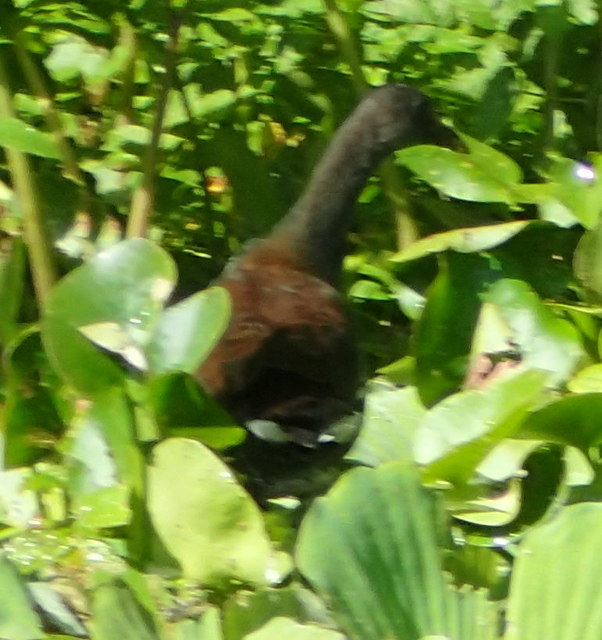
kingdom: Animalia
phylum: Chordata
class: Aves
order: Gruiformes
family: Rallidae
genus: Gallinula
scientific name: Gallinula chloropus
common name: Common moorhen
